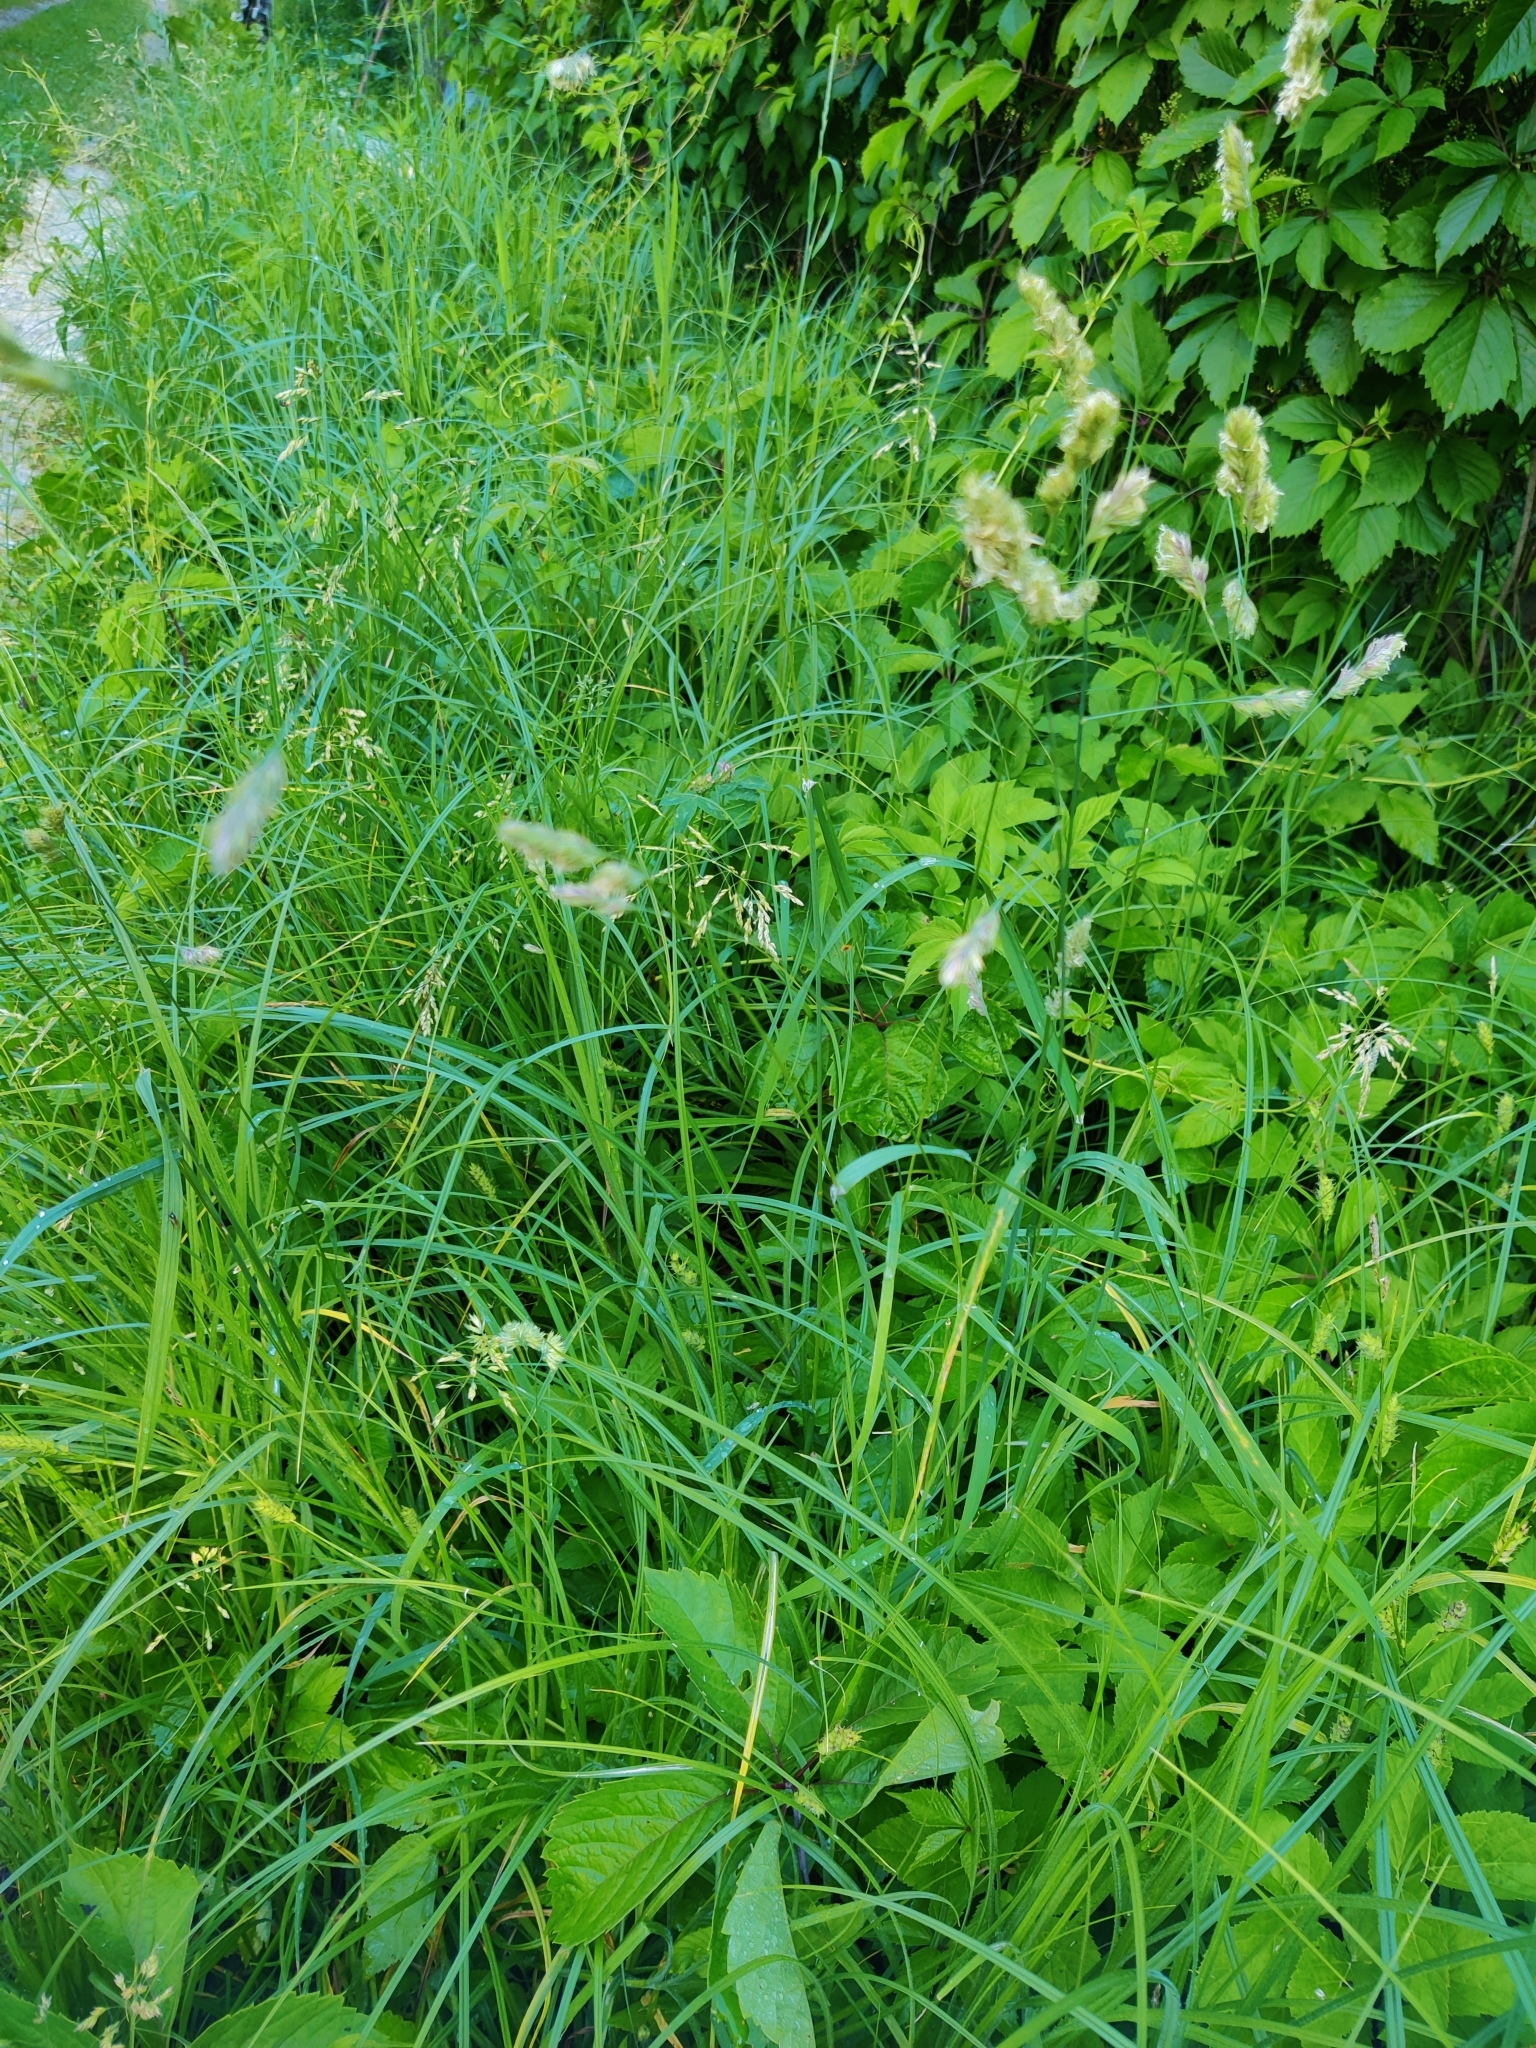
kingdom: Plantae
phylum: Tracheophyta
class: Liliopsida
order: Poales
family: Poaceae
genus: Dactylis
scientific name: Dactylis glomerata
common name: Orchardgrass
